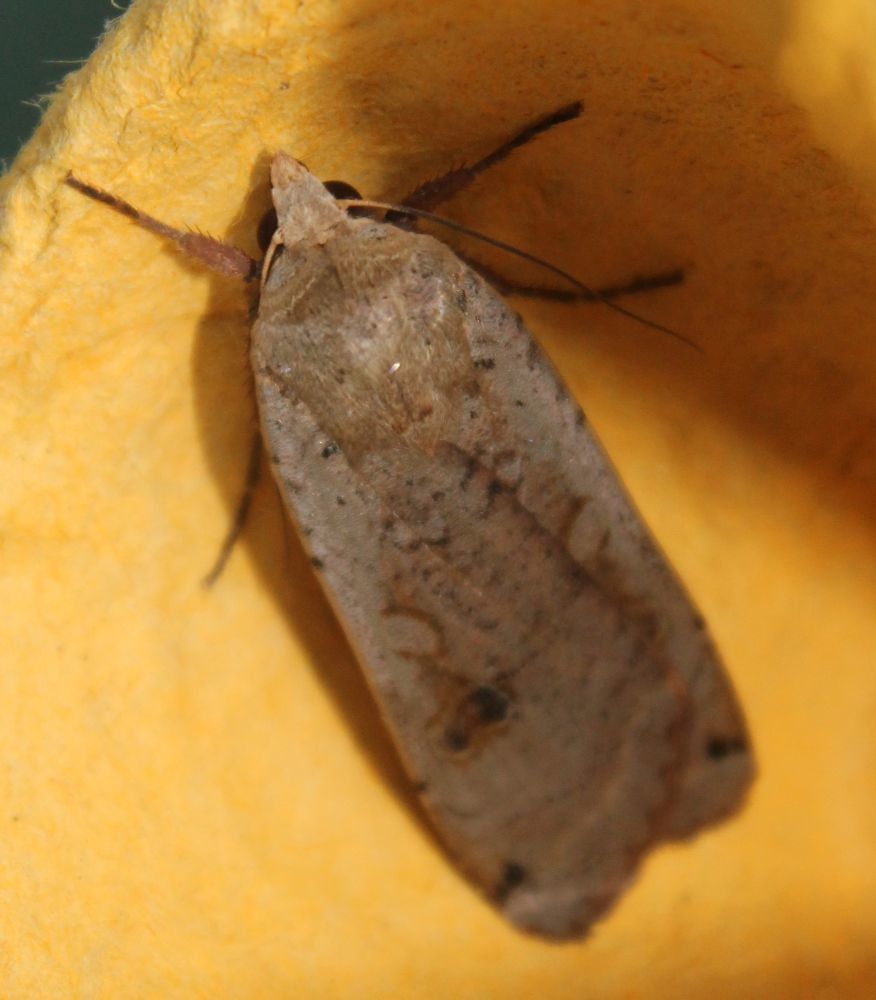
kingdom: Animalia
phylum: Arthropoda
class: Insecta
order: Lepidoptera
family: Noctuidae
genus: Noctua
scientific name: Noctua pronuba
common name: Large yellow underwing
